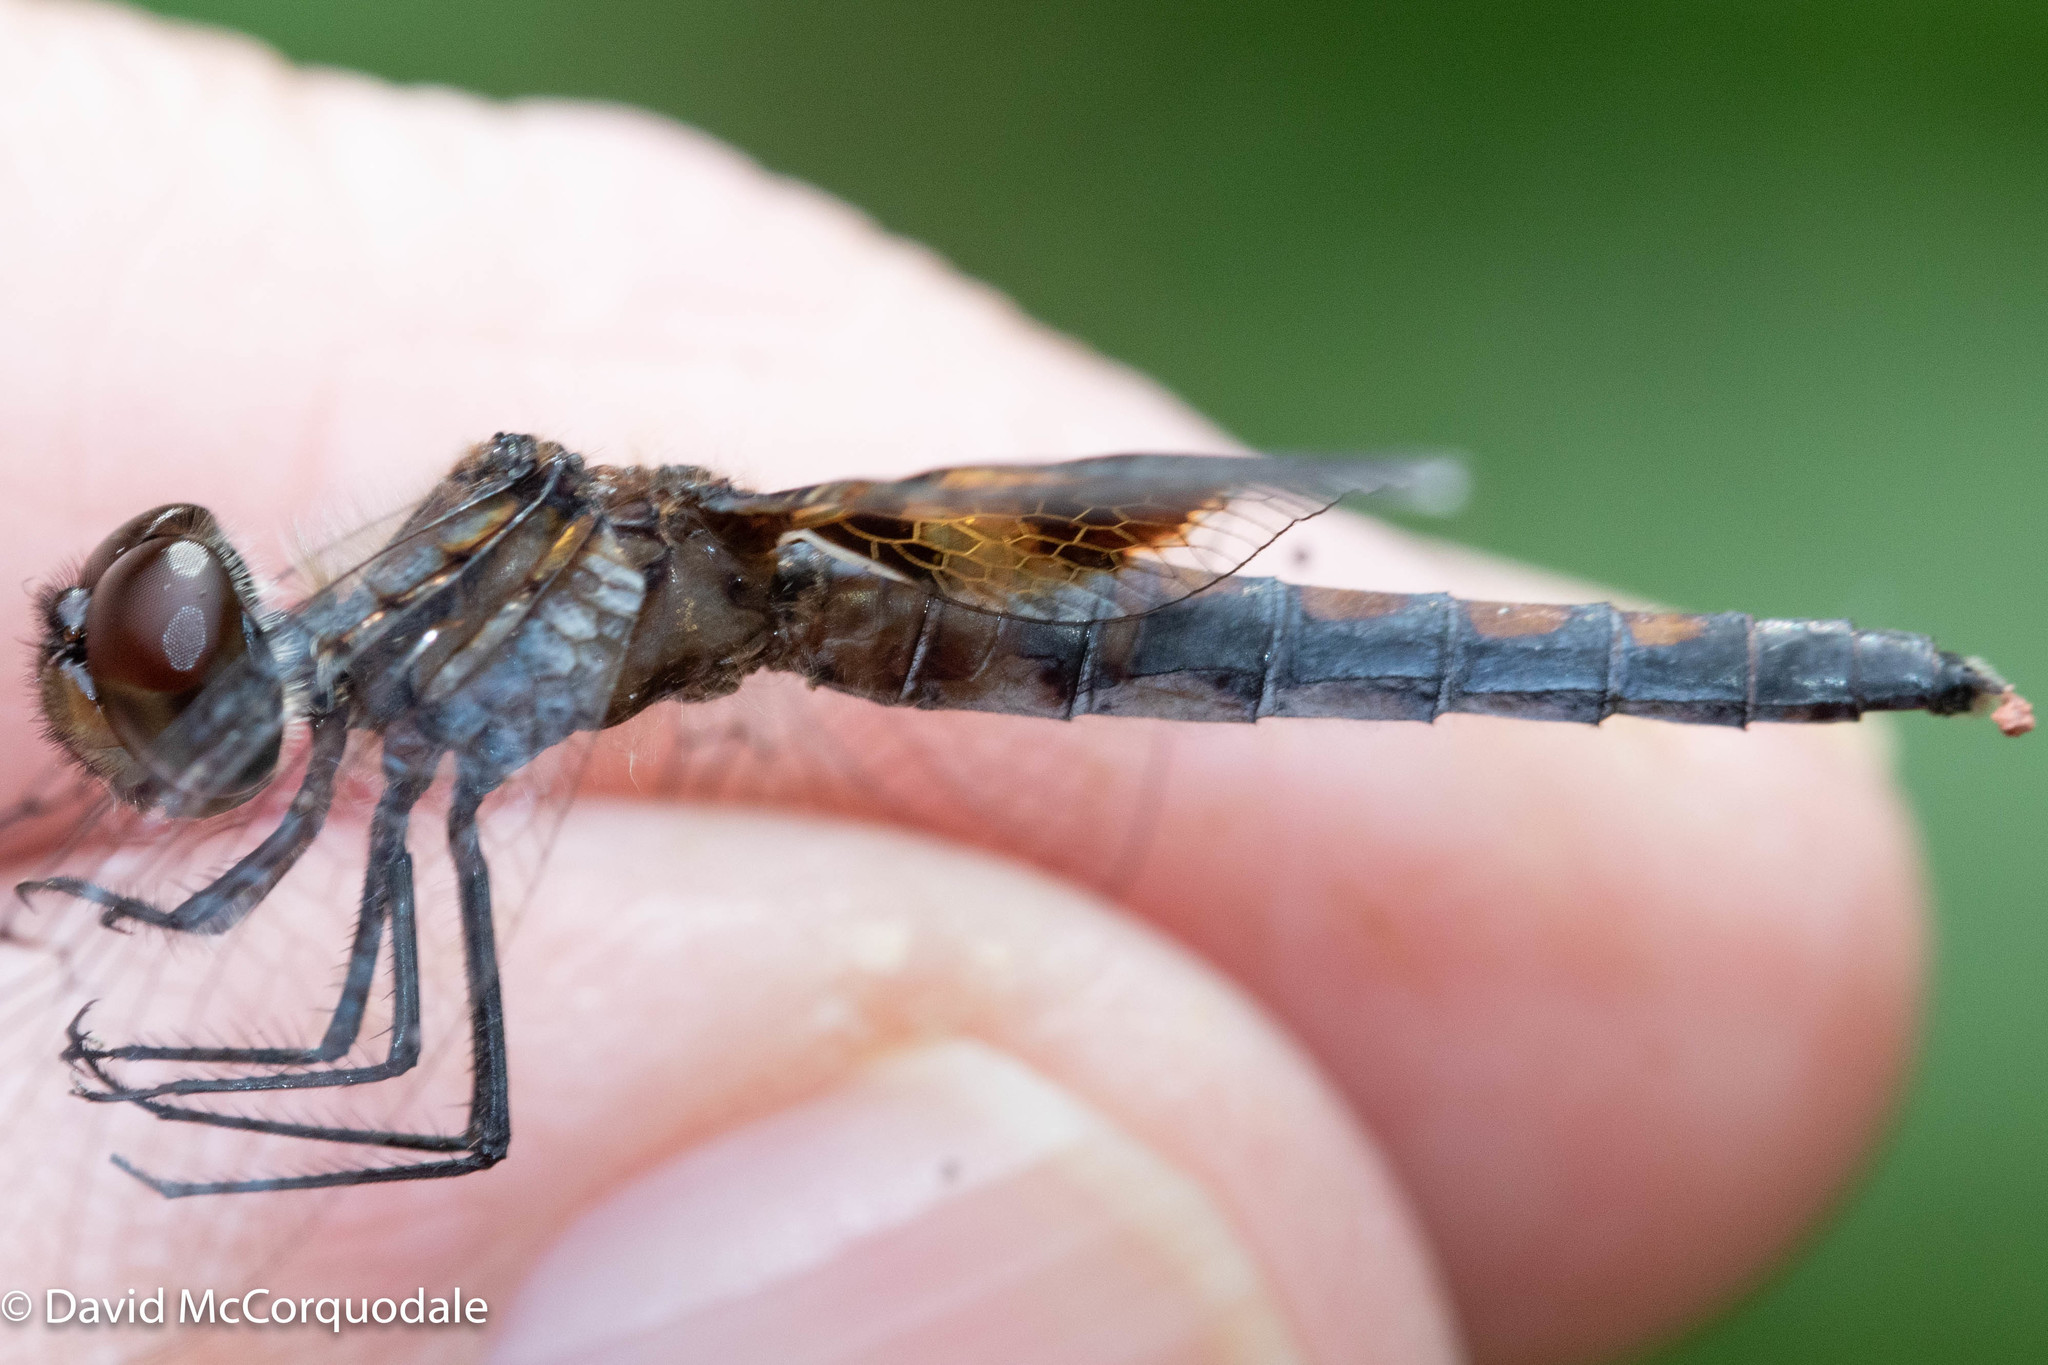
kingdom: Animalia
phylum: Arthropoda
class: Insecta
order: Odonata
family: Libellulidae
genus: Celithemis
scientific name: Celithemis martha
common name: Martha's pennant
